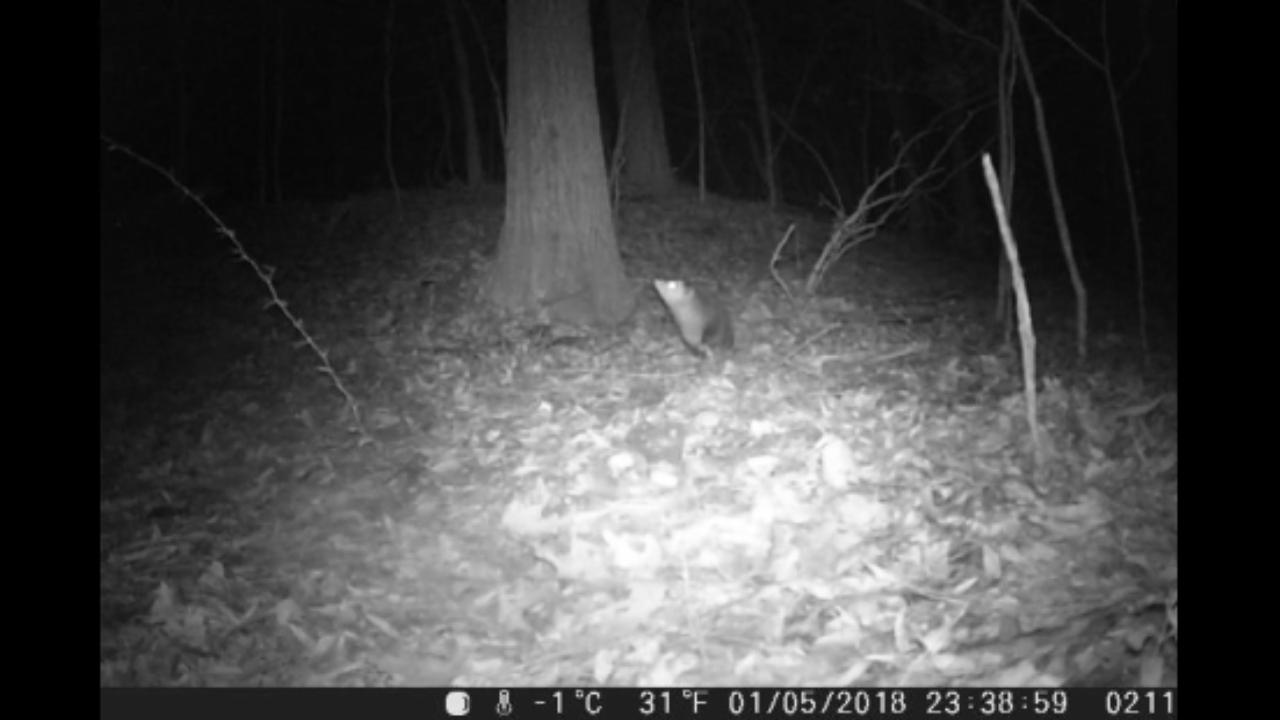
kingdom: Animalia
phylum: Chordata
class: Mammalia
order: Didelphimorphia
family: Didelphidae
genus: Didelphis
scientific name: Didelphis virginiana
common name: Virginia opossum
